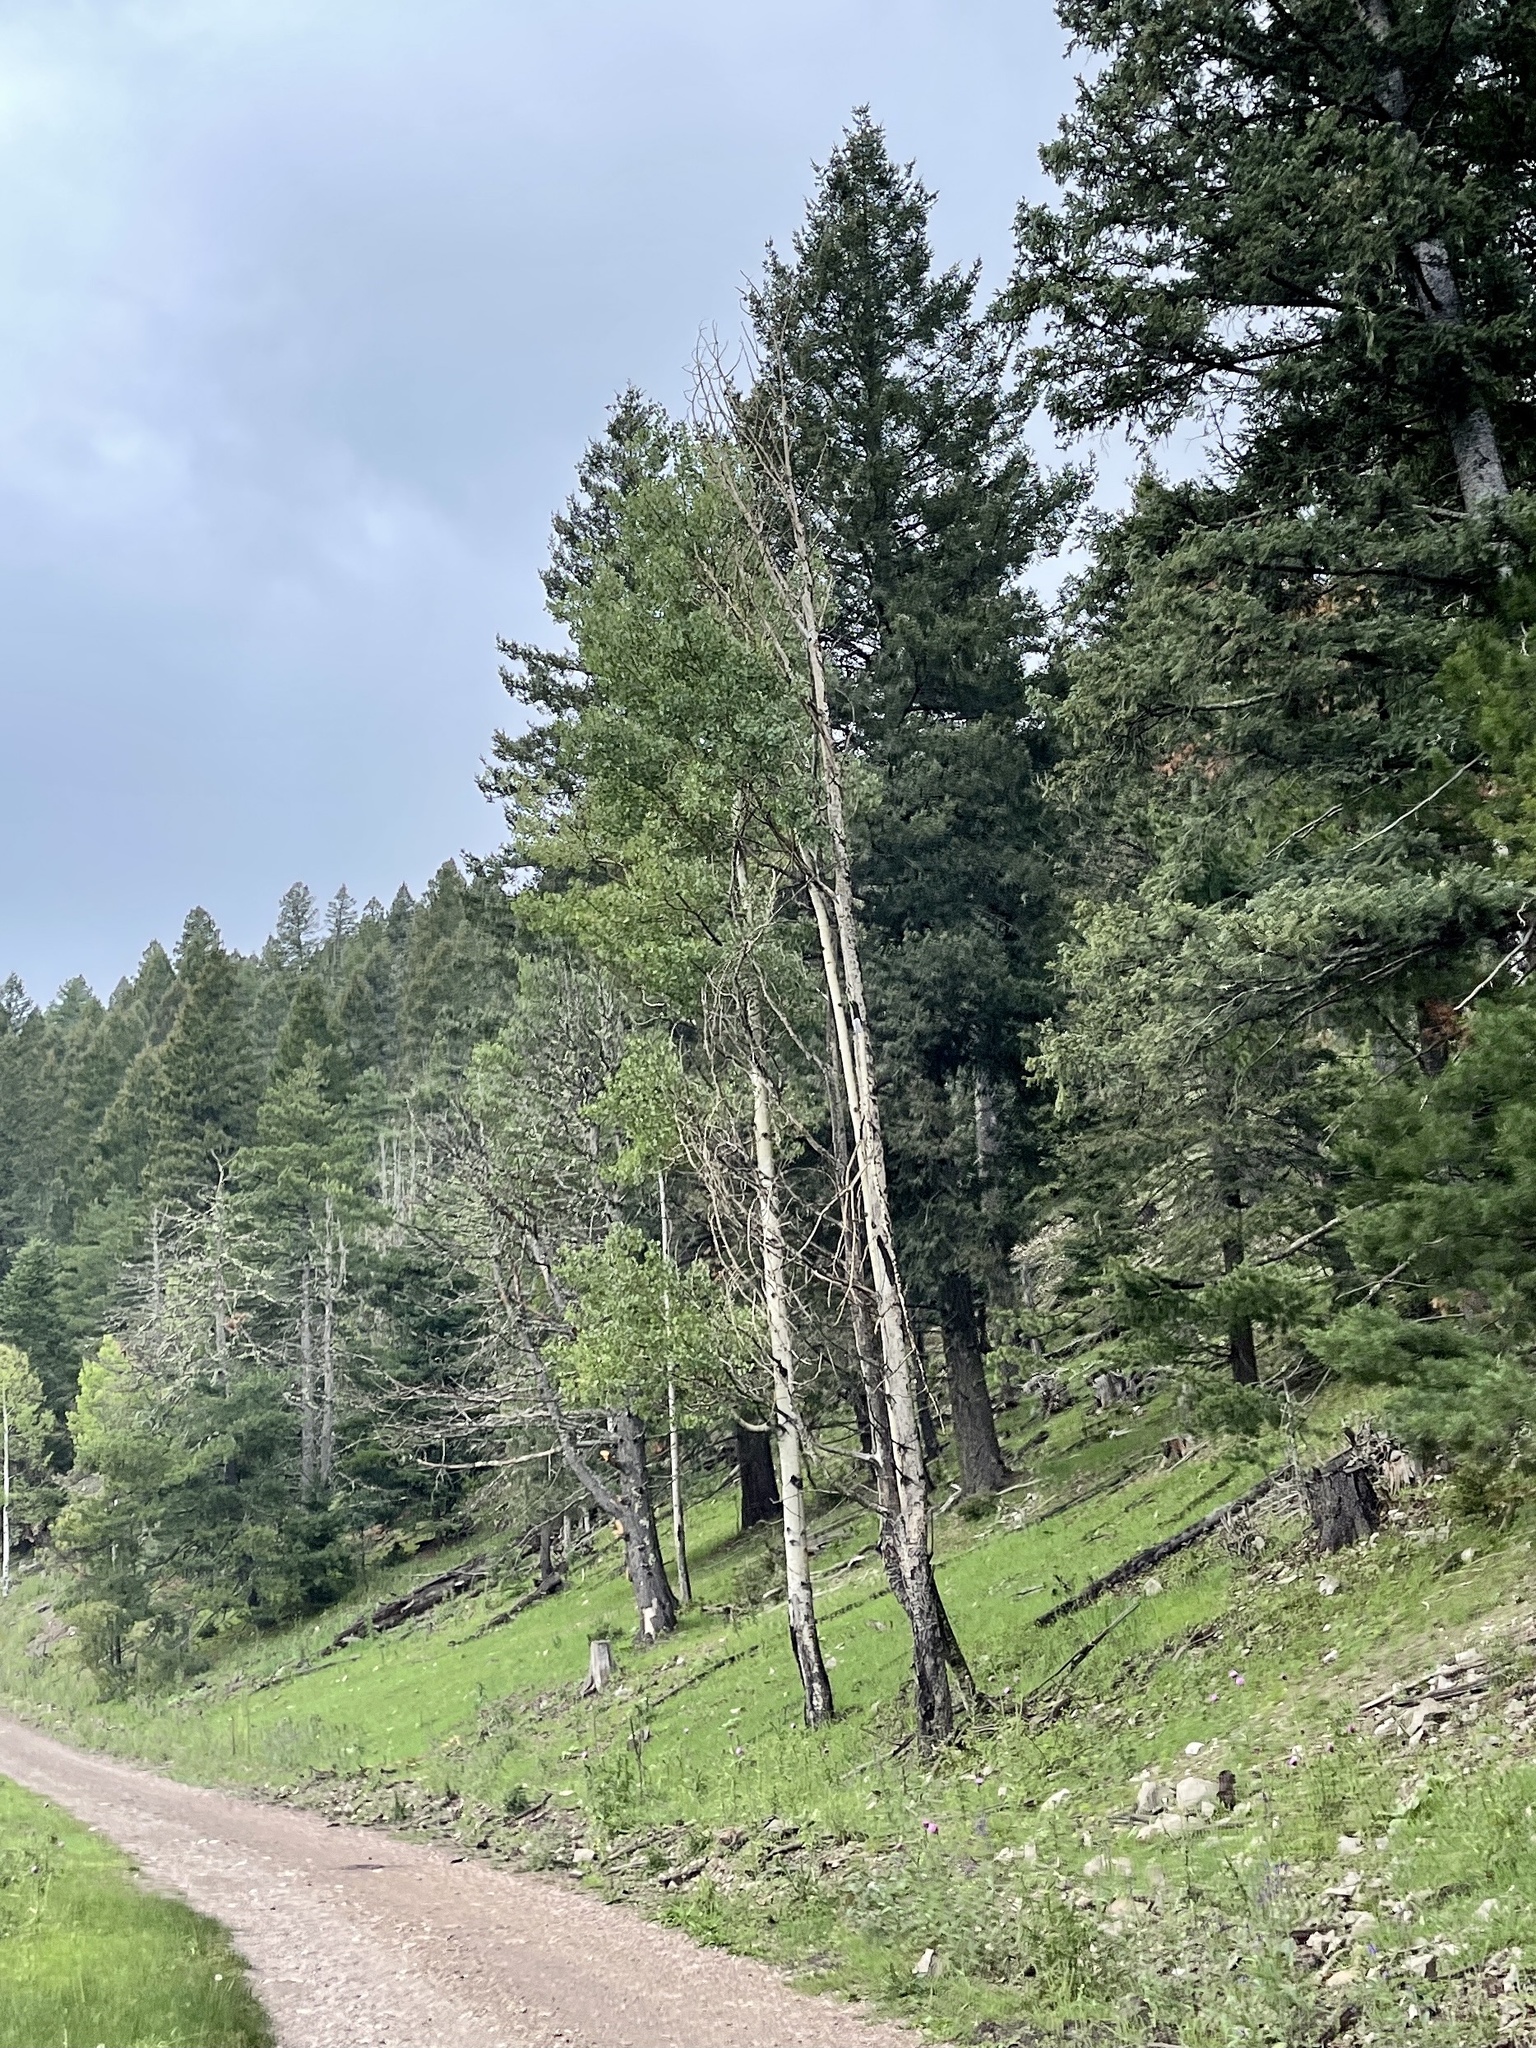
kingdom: Plantae
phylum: Tracheophyta
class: Magnoliopsida
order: Malpighiales
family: Salicaceae
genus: Populus
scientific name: Populus tremuloides
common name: Quaking aspen
